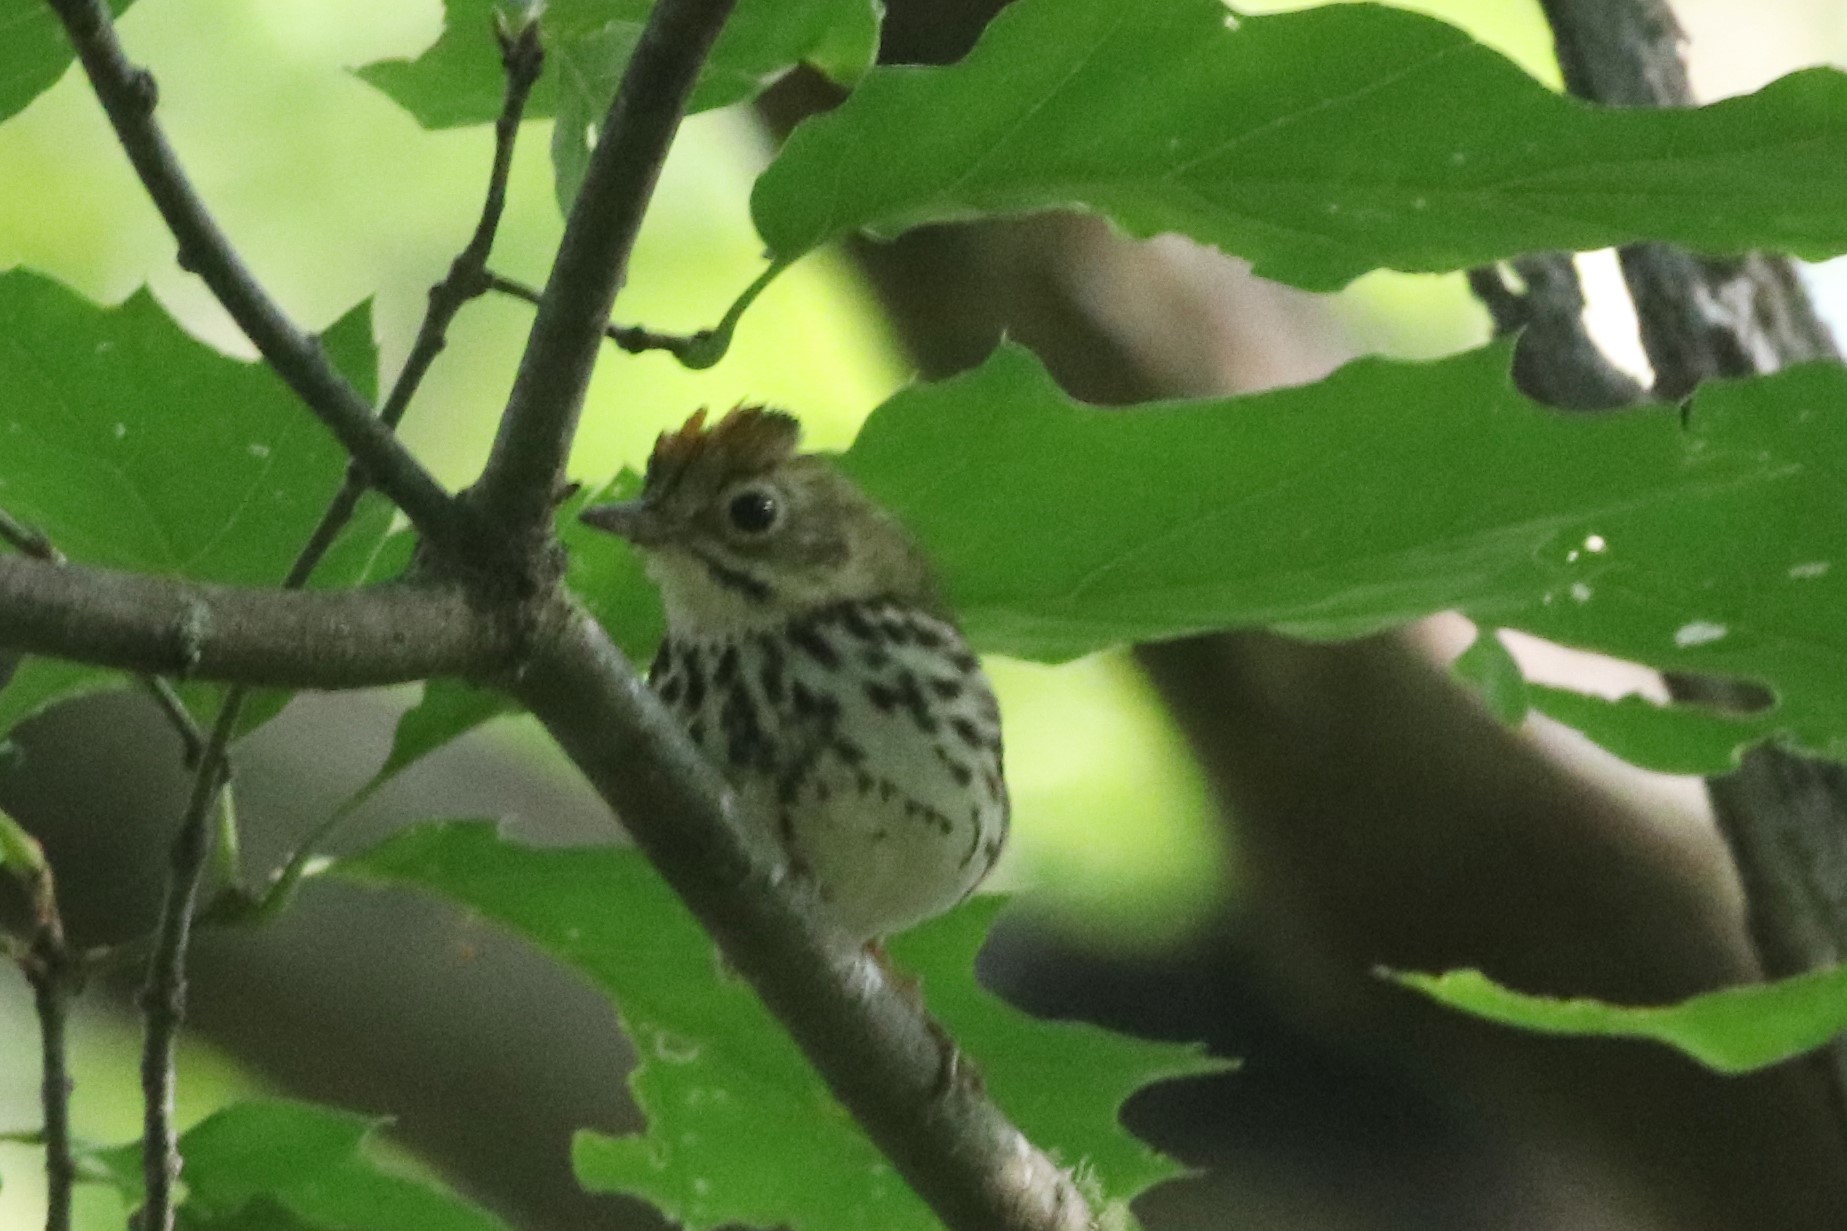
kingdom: Animalia
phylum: Chordata
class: Aves
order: Passeriformes
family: Parulidae
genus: Seiurus
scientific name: Seiurus aurocapilla
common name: Ovenbird
